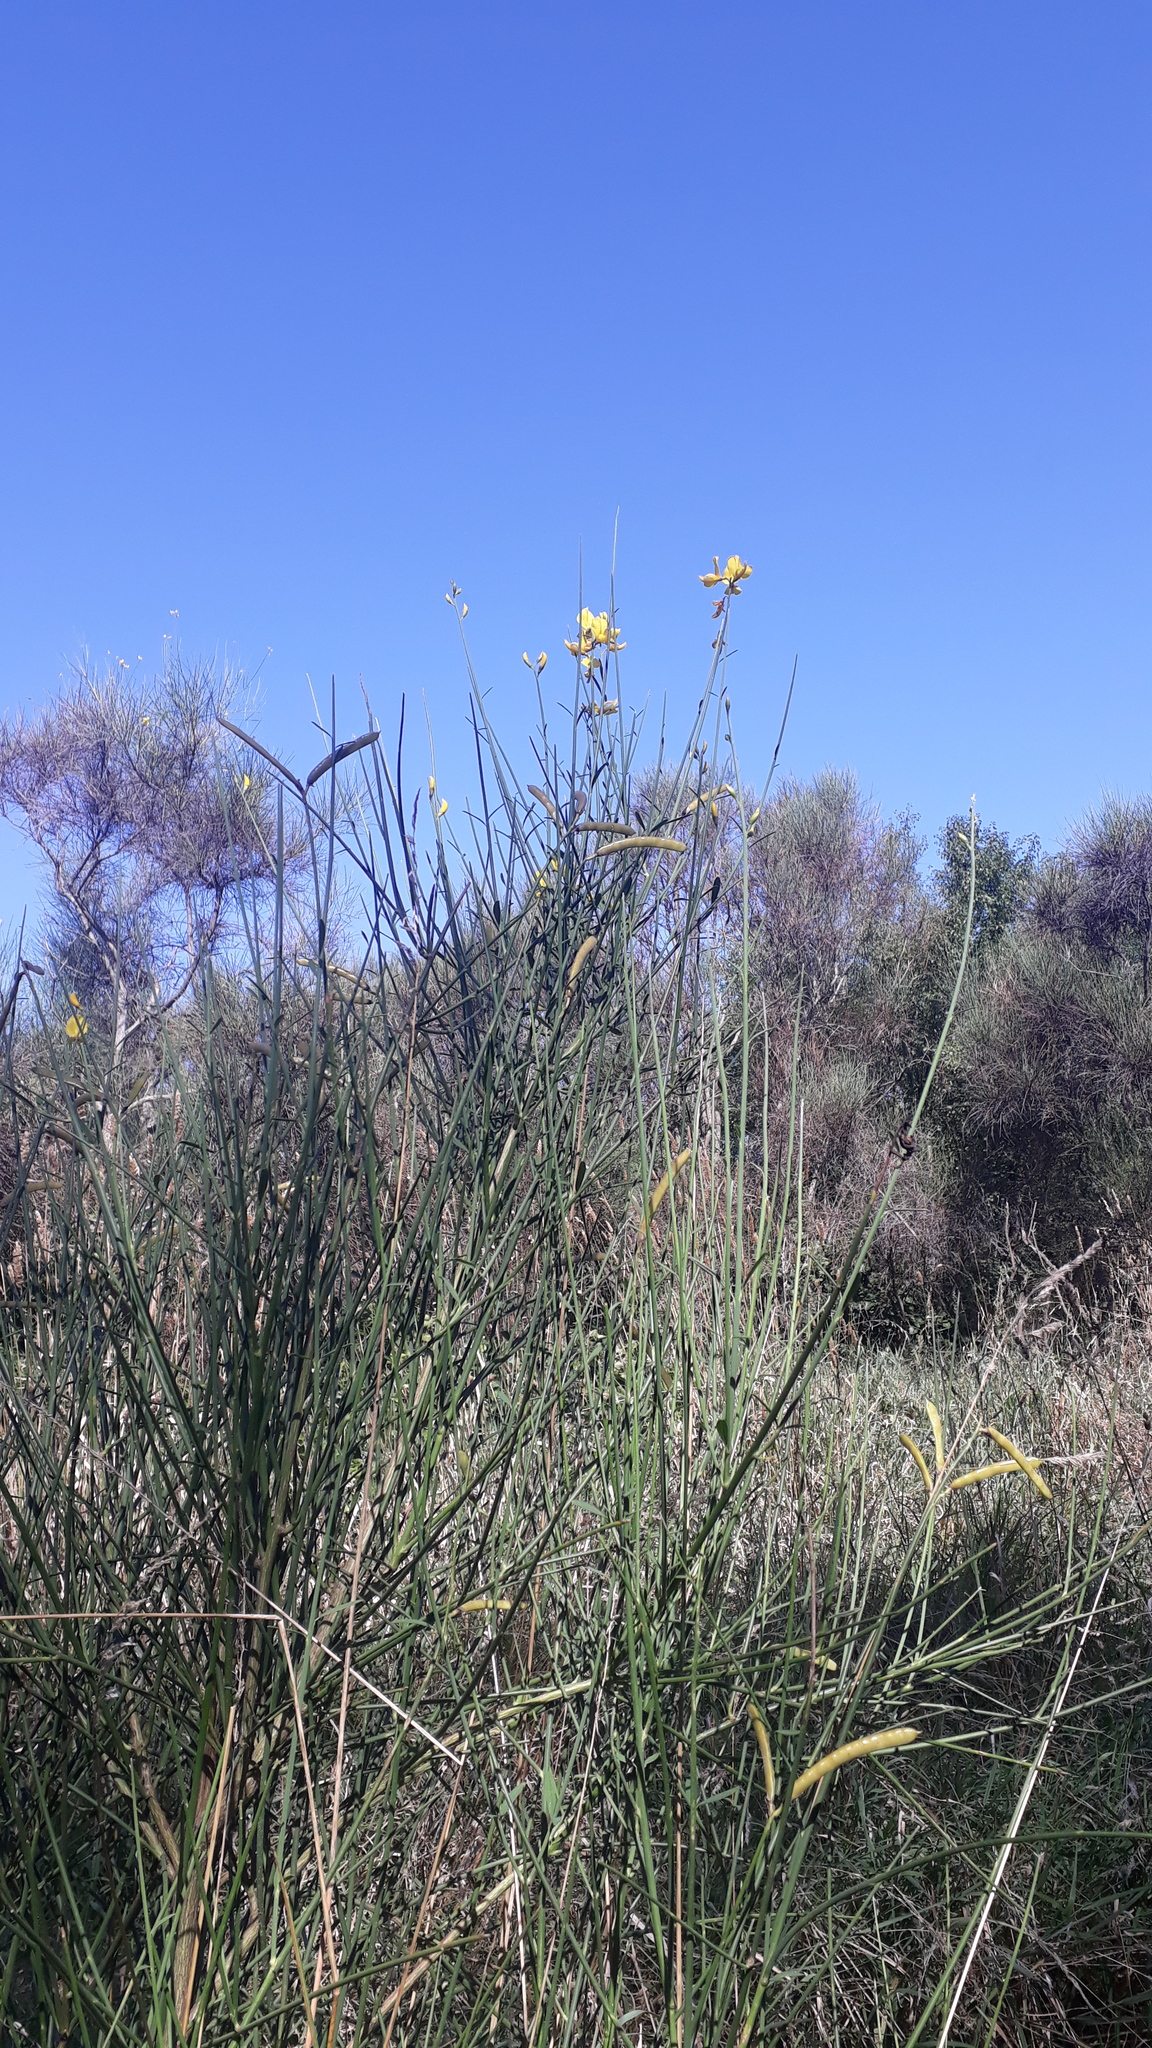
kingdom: Plantae
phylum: Tracheophyta
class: Magnoliopsida
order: Fabales
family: Fabaceae
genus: Spartium
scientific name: Spartium junceum
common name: Spanish broom
